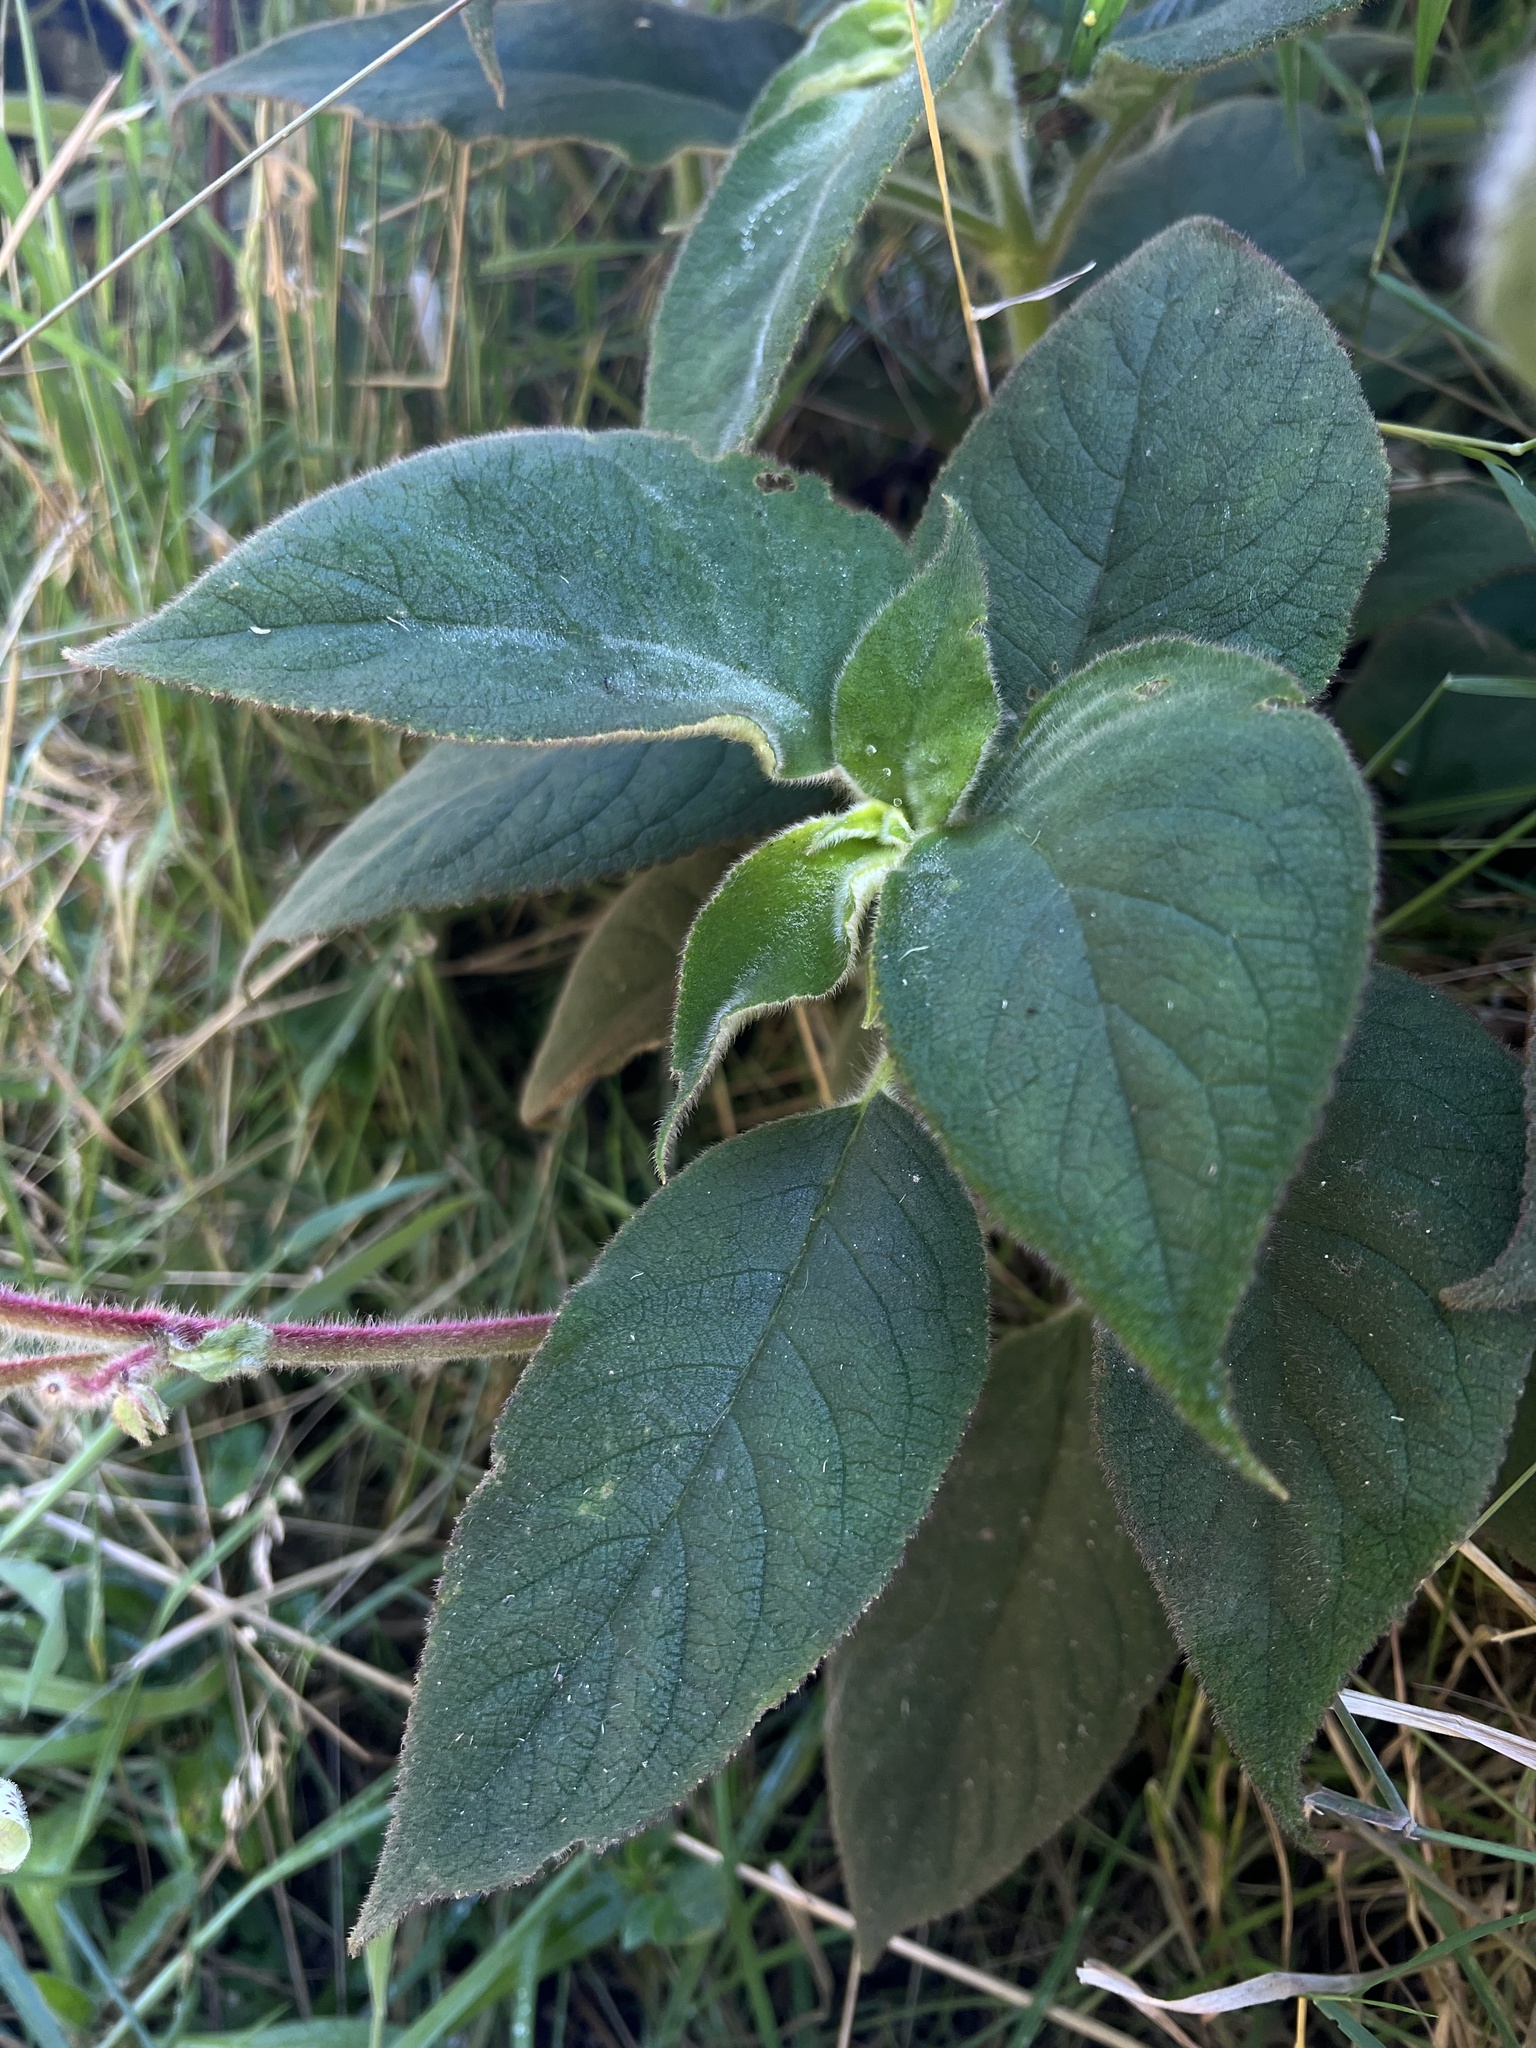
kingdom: Plantae
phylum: Tracheophyta
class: Magnoliopsida
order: Lamiales
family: Gesneriaceae
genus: Kohleria
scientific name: Kohleria tigridia
